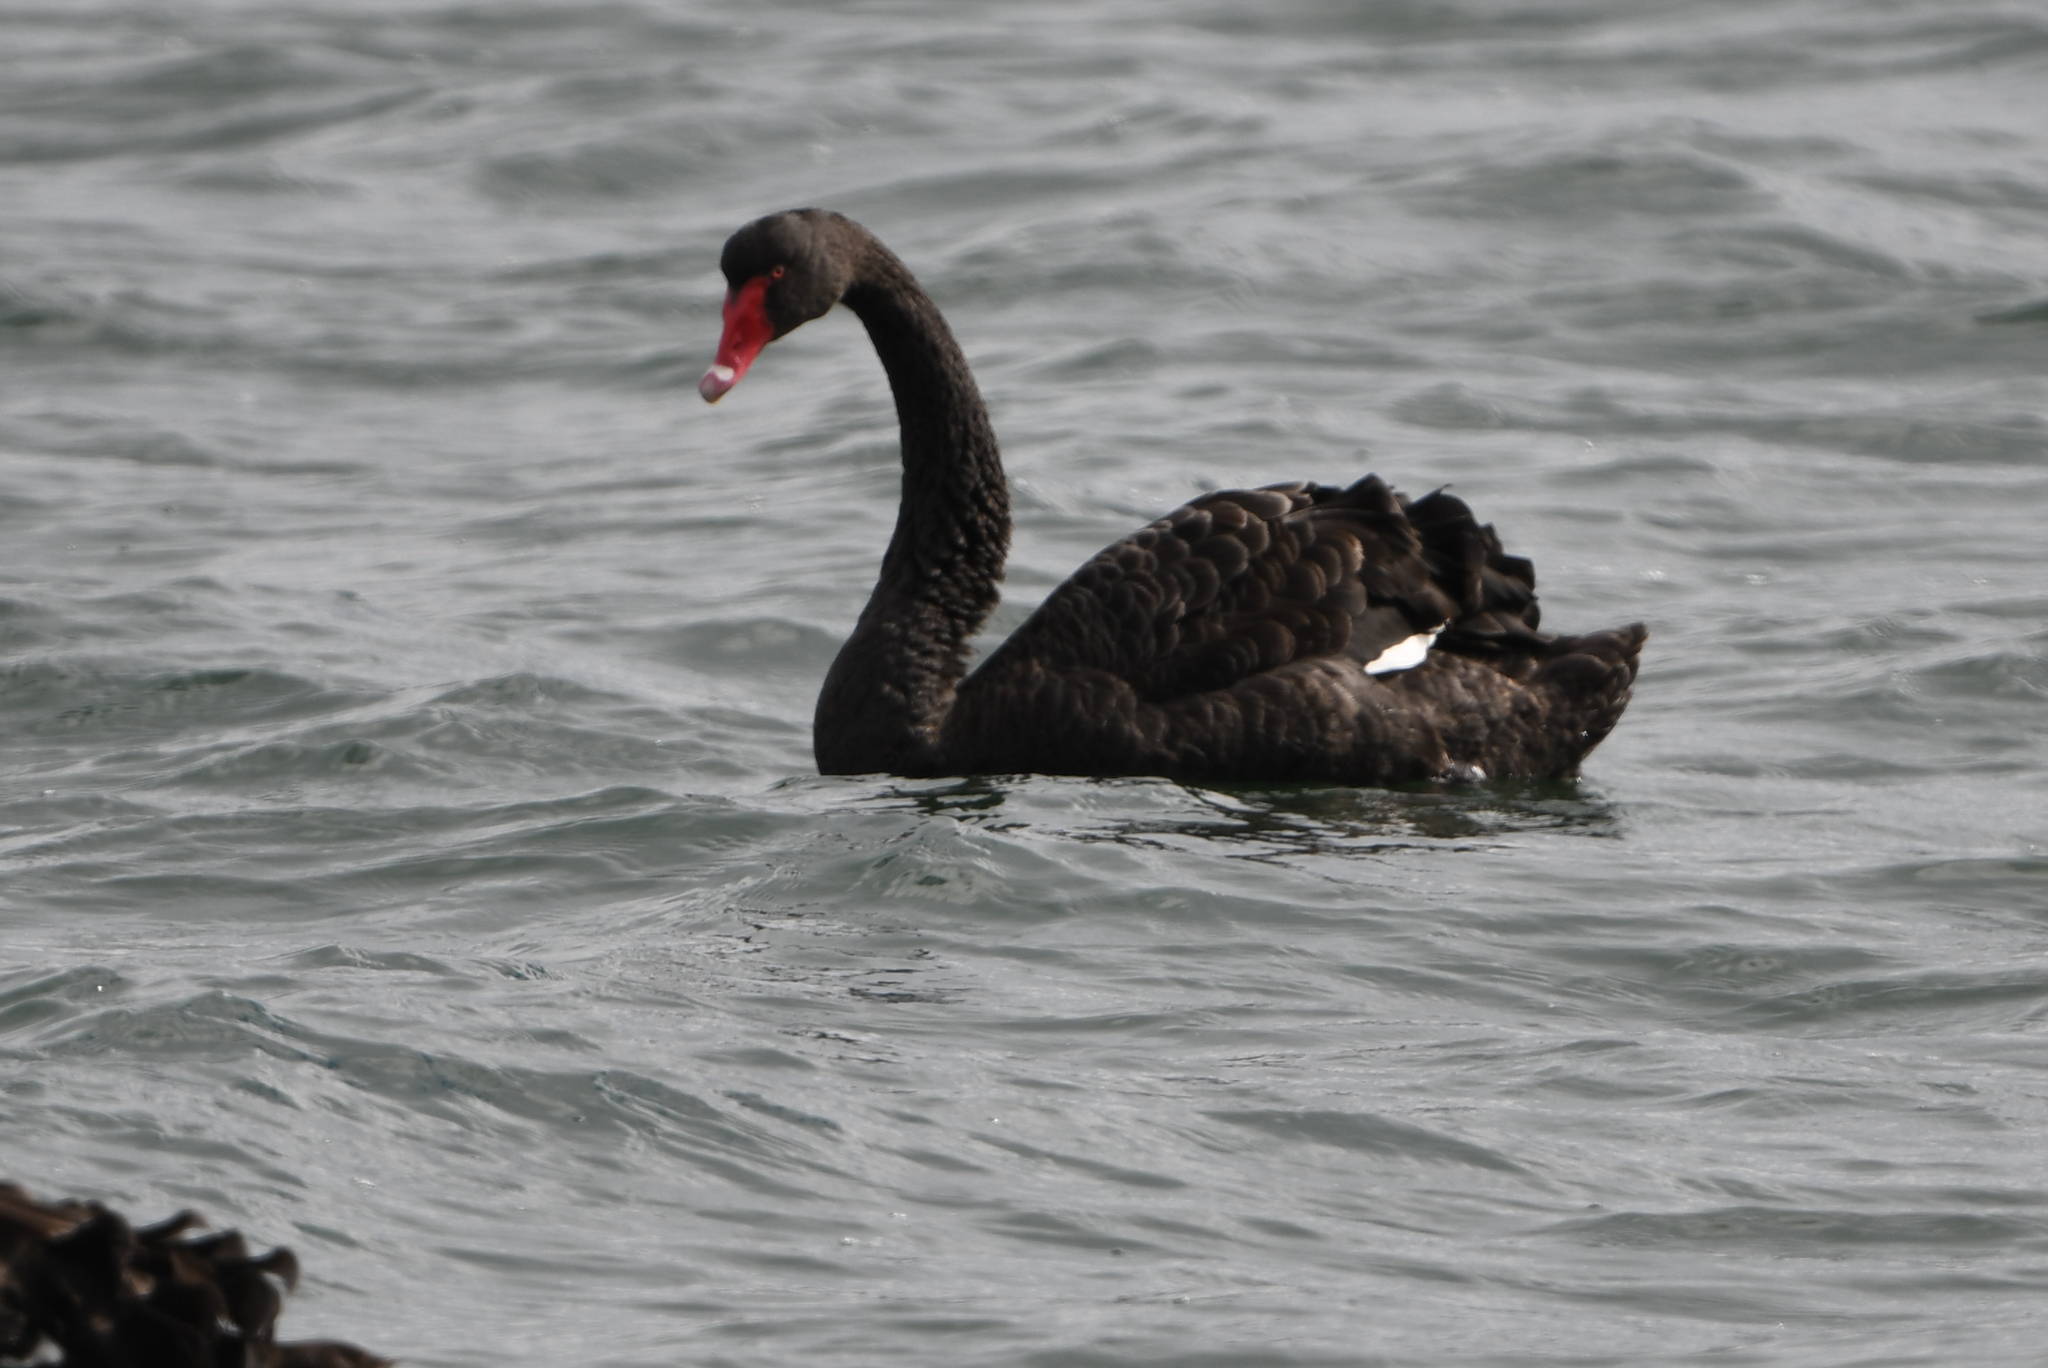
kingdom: Animalia
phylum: Chordata
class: Aves
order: Anseriformes
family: Anatidae
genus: Cygnus
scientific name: Cygnus atratus
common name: Black swan
